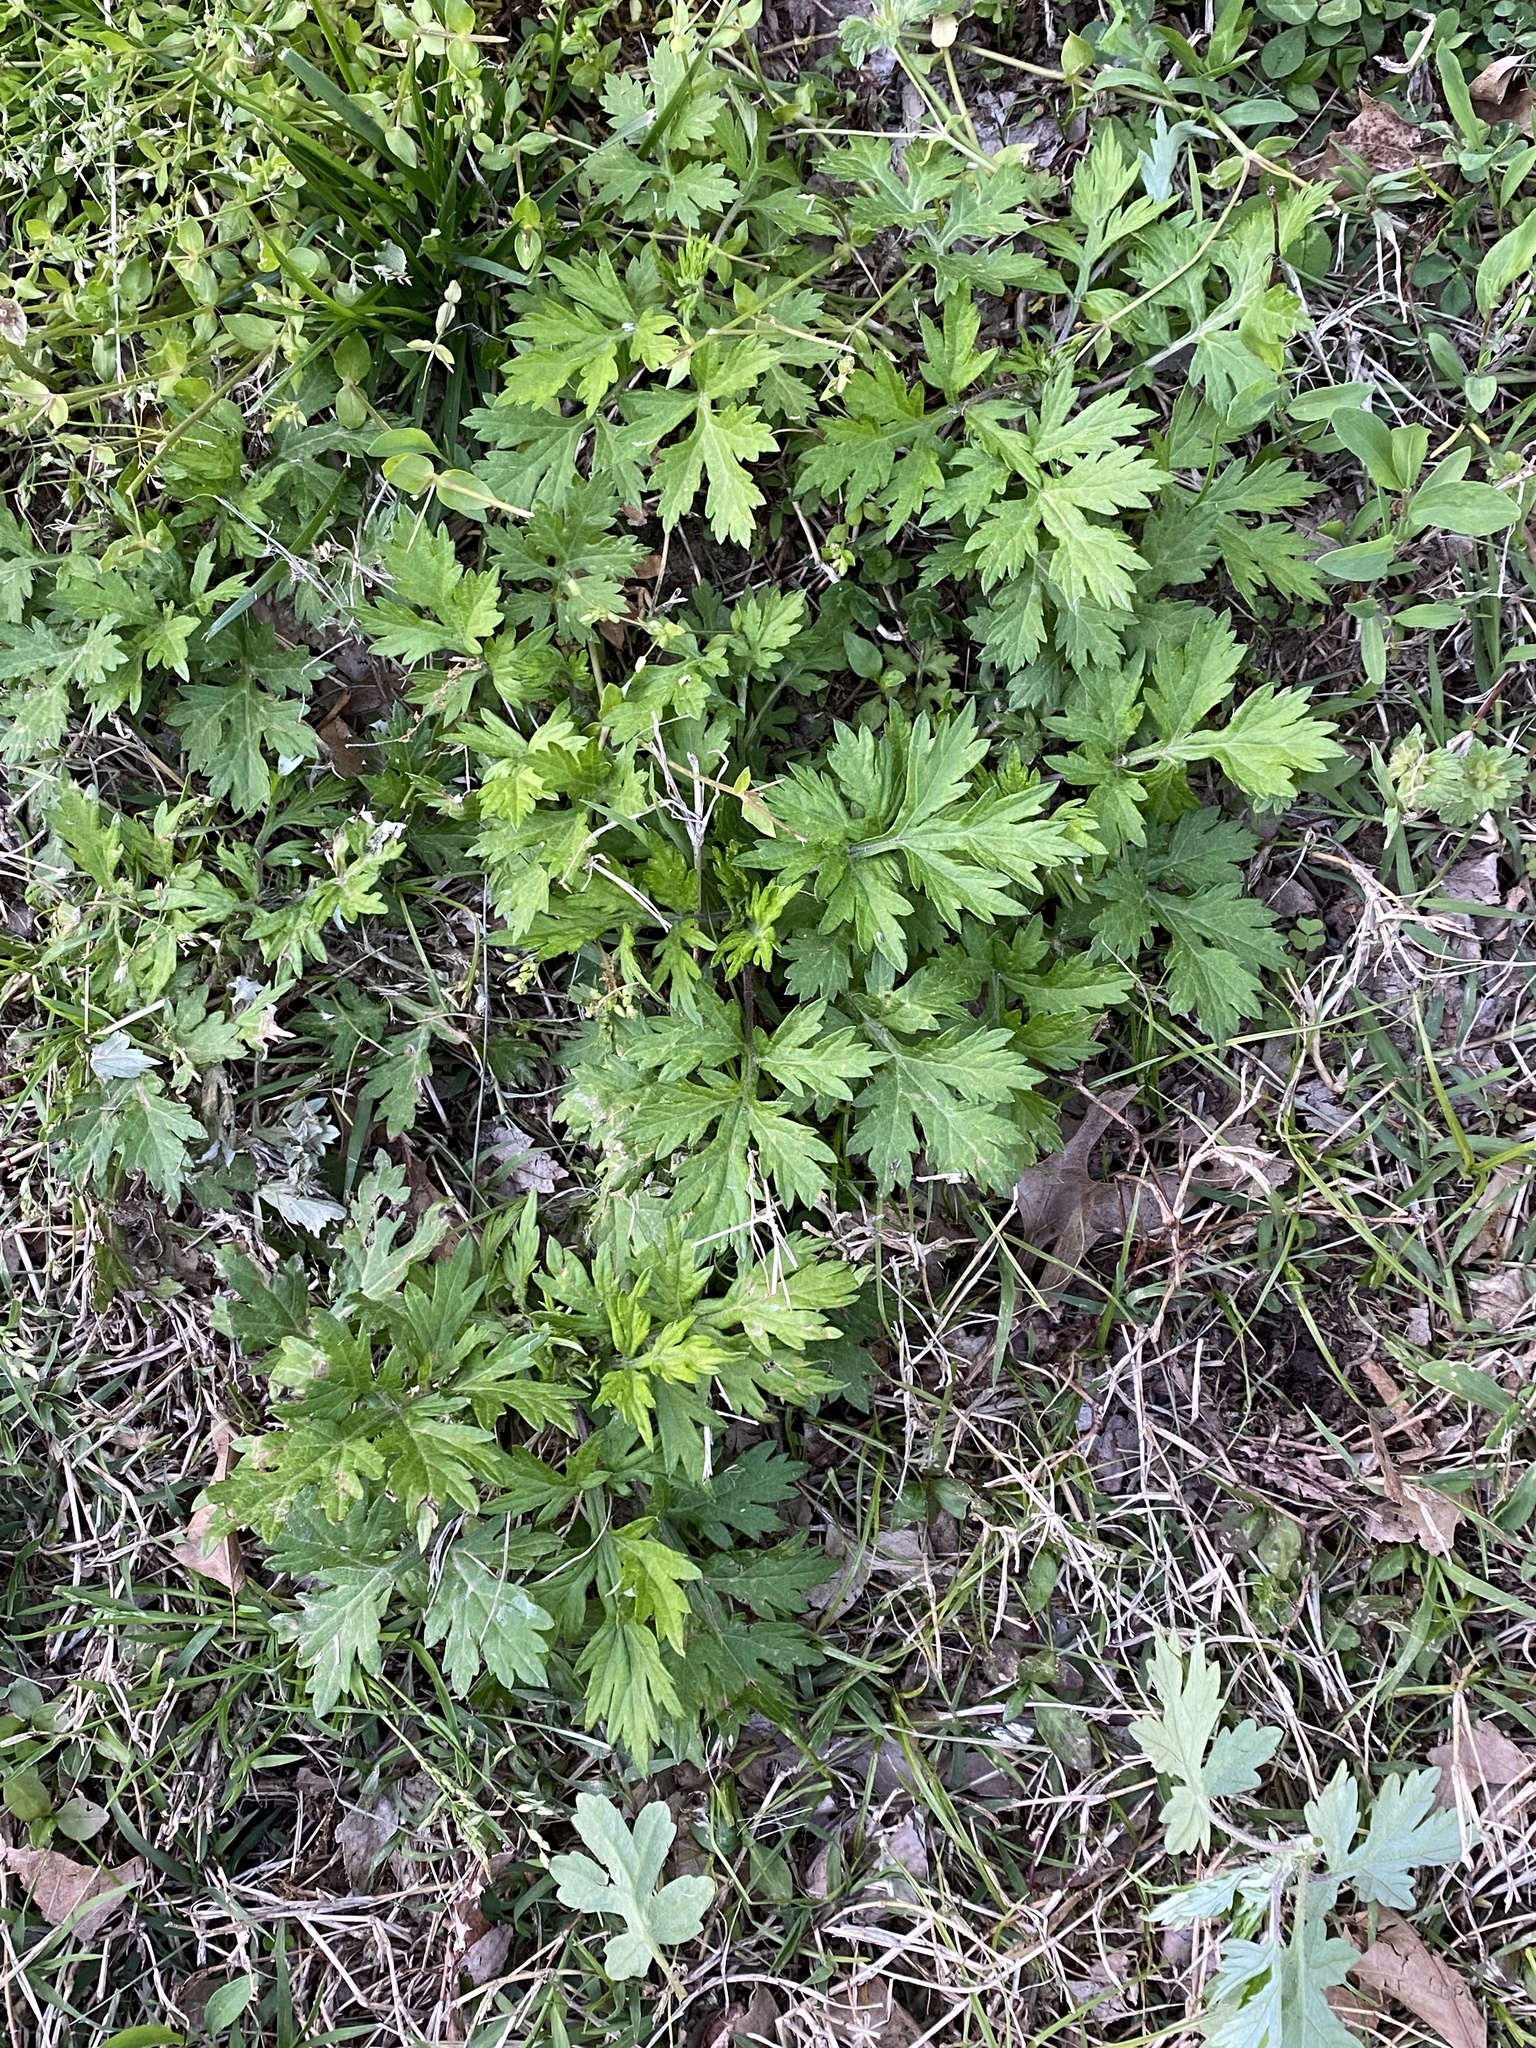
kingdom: Plantae
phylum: Tracheophyta
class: Magnoliopsida
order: Asterales
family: Asteraceae
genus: Artemisia
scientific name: Artemisia vulgaris
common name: Mugwort
